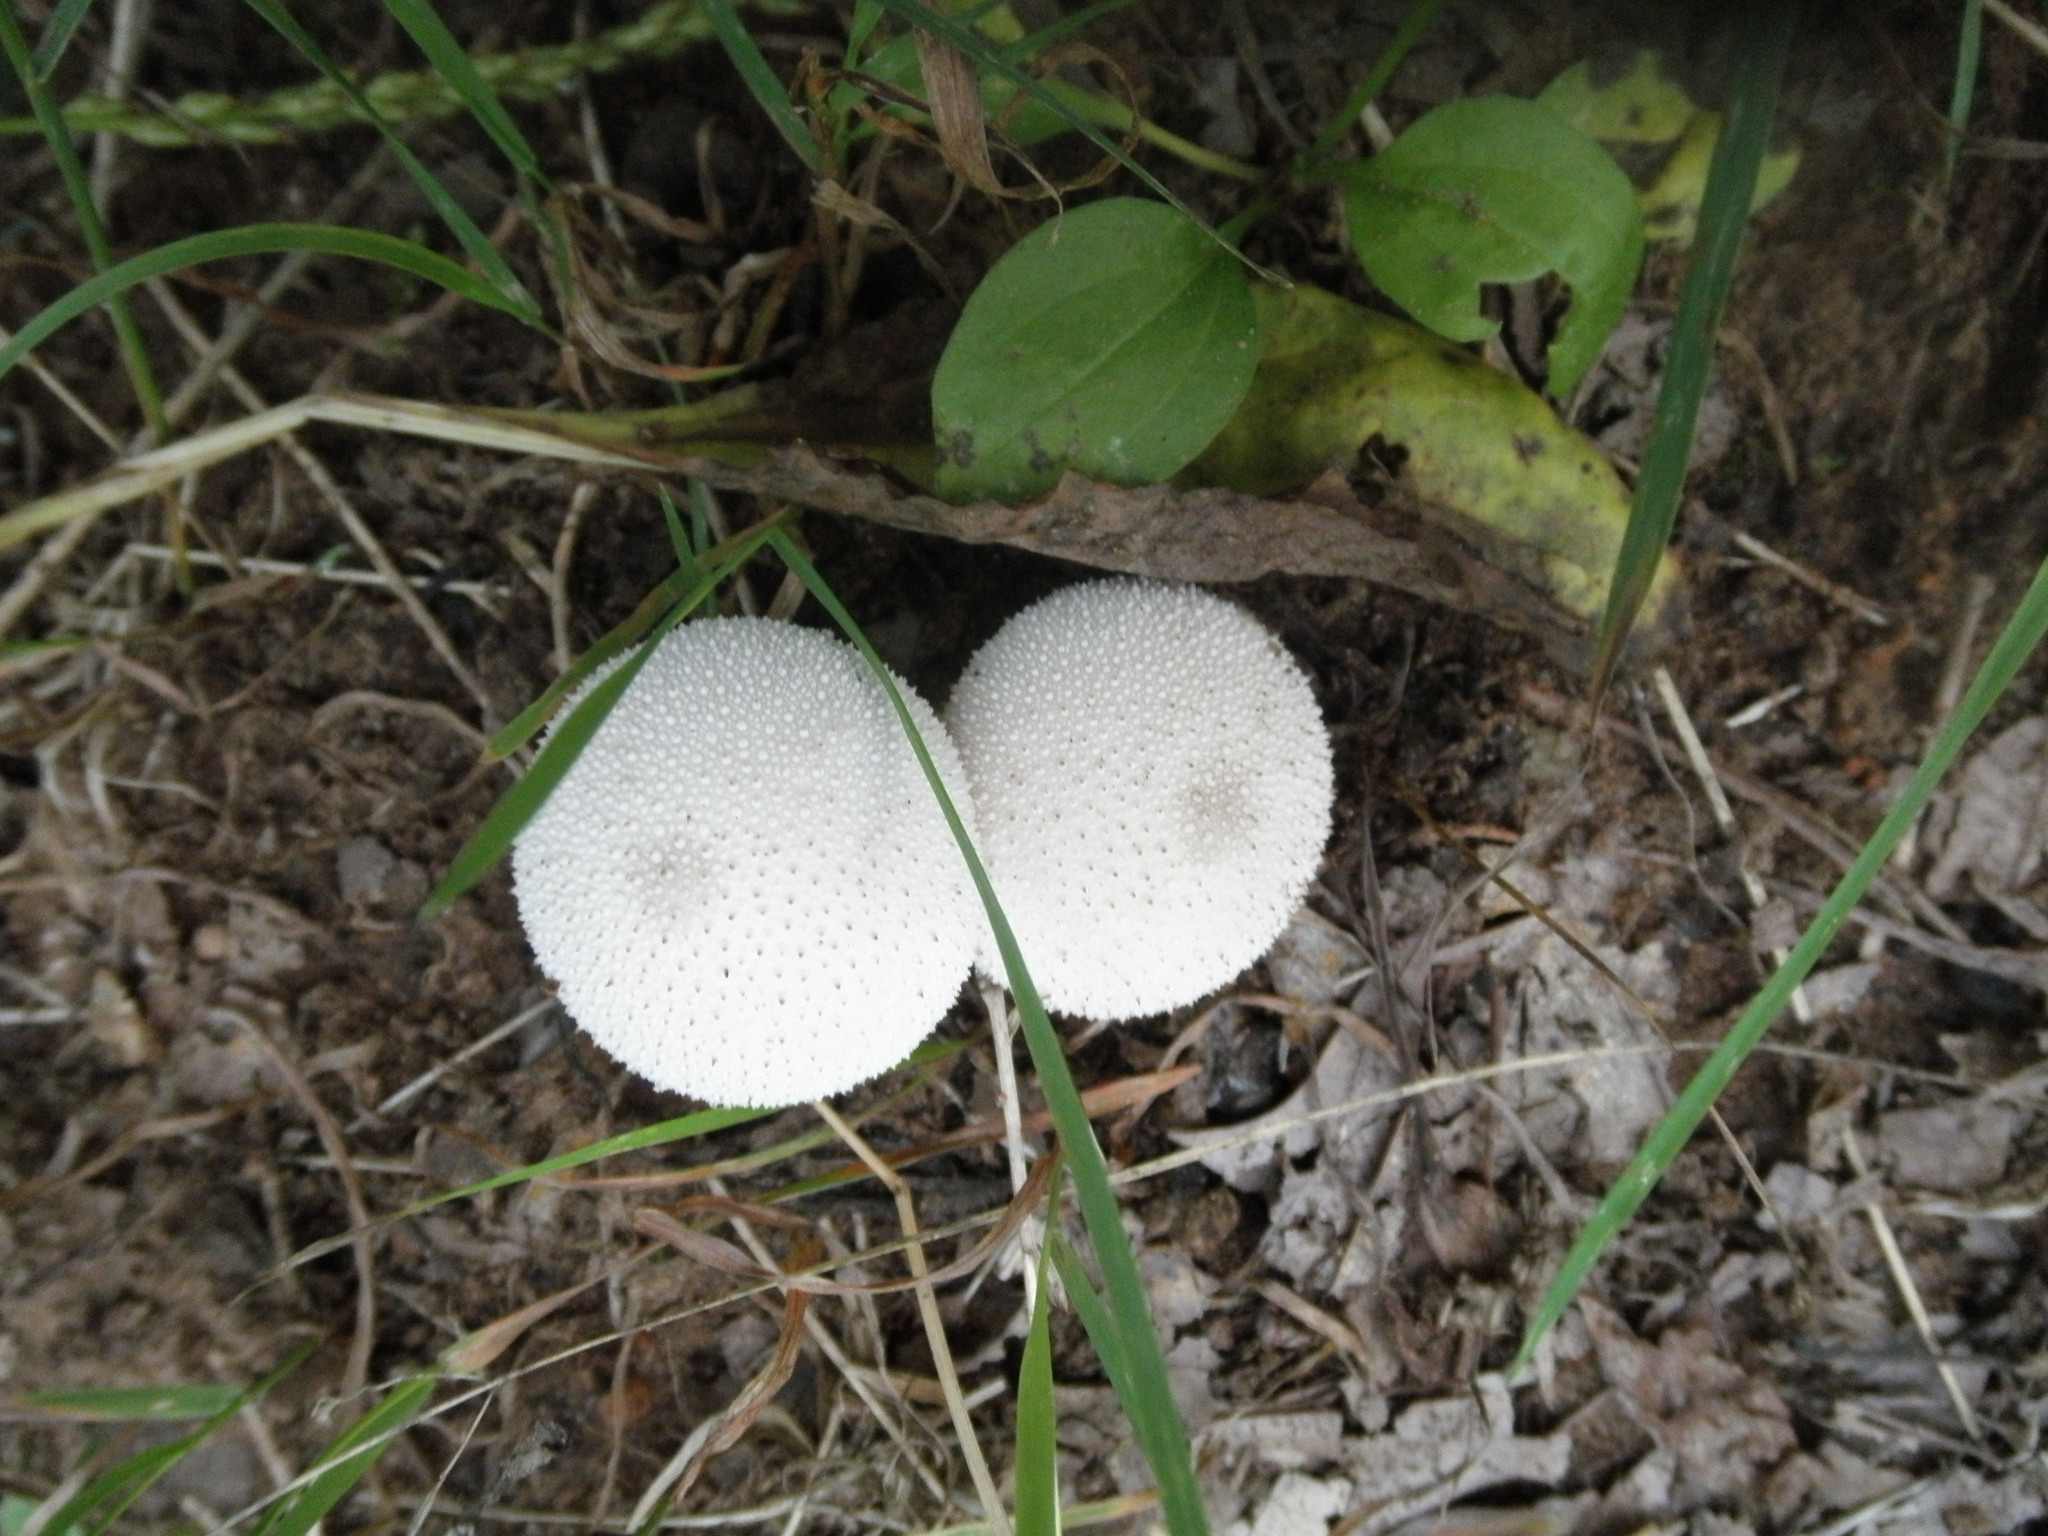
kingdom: Fungi
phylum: Basidiomycota
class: Agaricomycetes
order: Agaricales
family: Lycoperdaceae
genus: Lycoperdon
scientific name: Lycoperdon perlatum
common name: Common puffball
